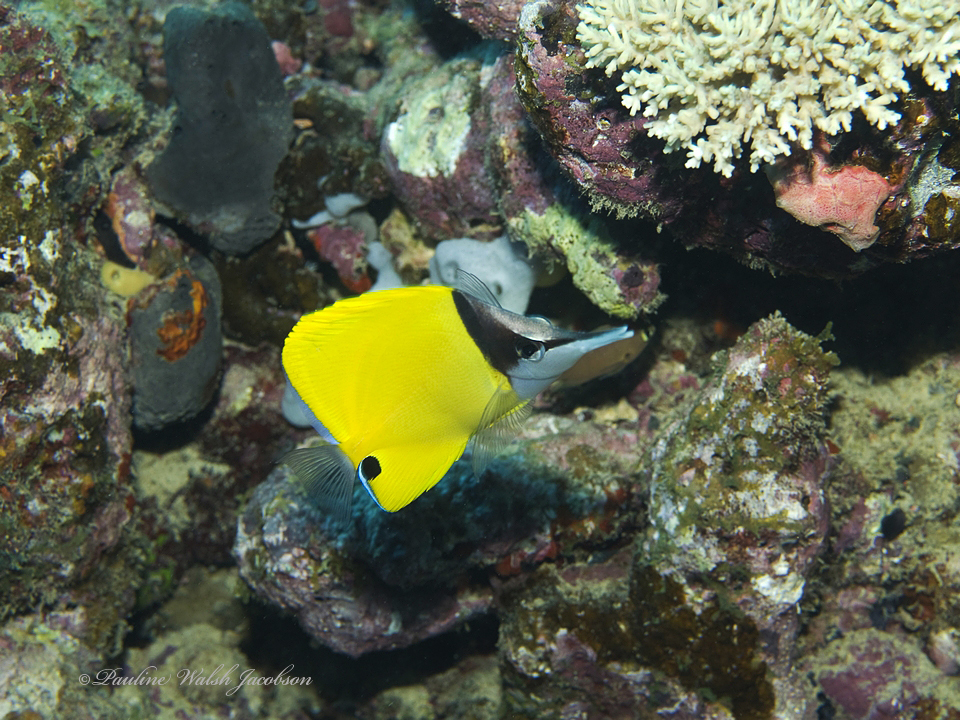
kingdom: Animalia
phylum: Chordata
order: Perciformes
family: Chaetodontidae
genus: Forcipiger
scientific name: Forcipiger flavissimus
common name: Forcepsfish
